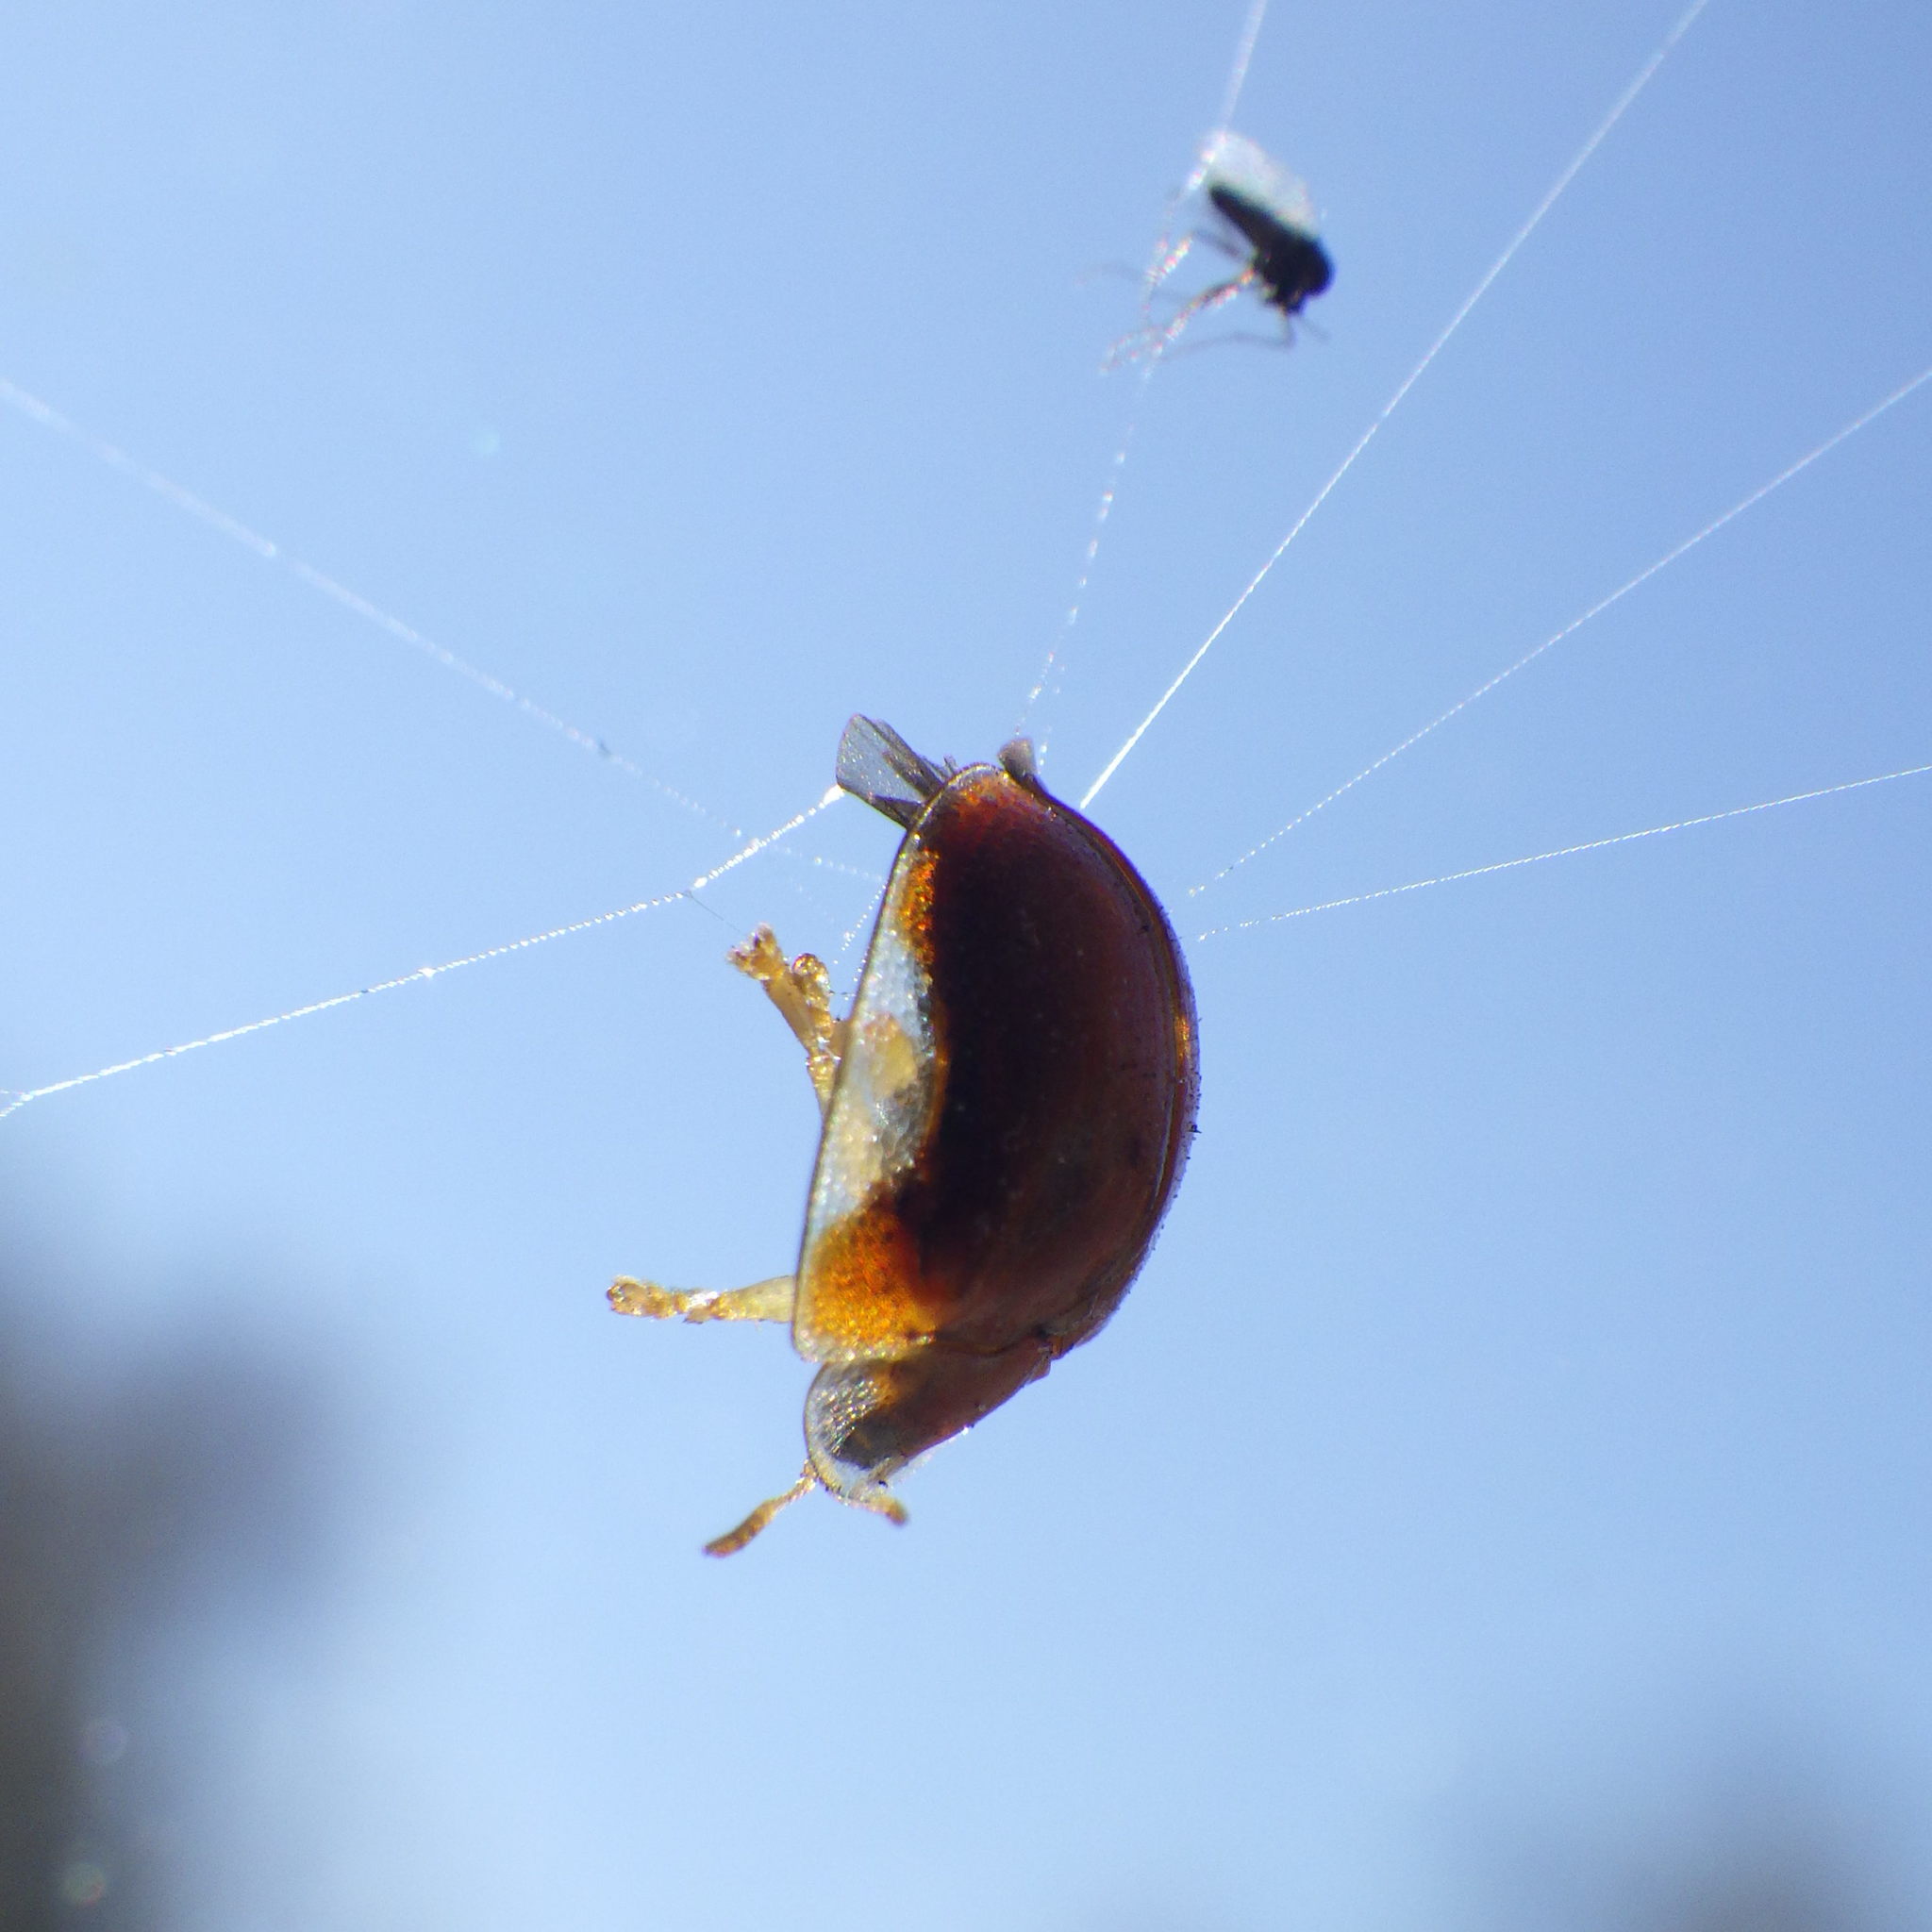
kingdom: Animalia
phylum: Arthropoda
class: Insecta
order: Coleoptera
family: Chrysomelidae
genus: Charidotella
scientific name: Charidotella purpurata
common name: Small orange tortoise beetle
